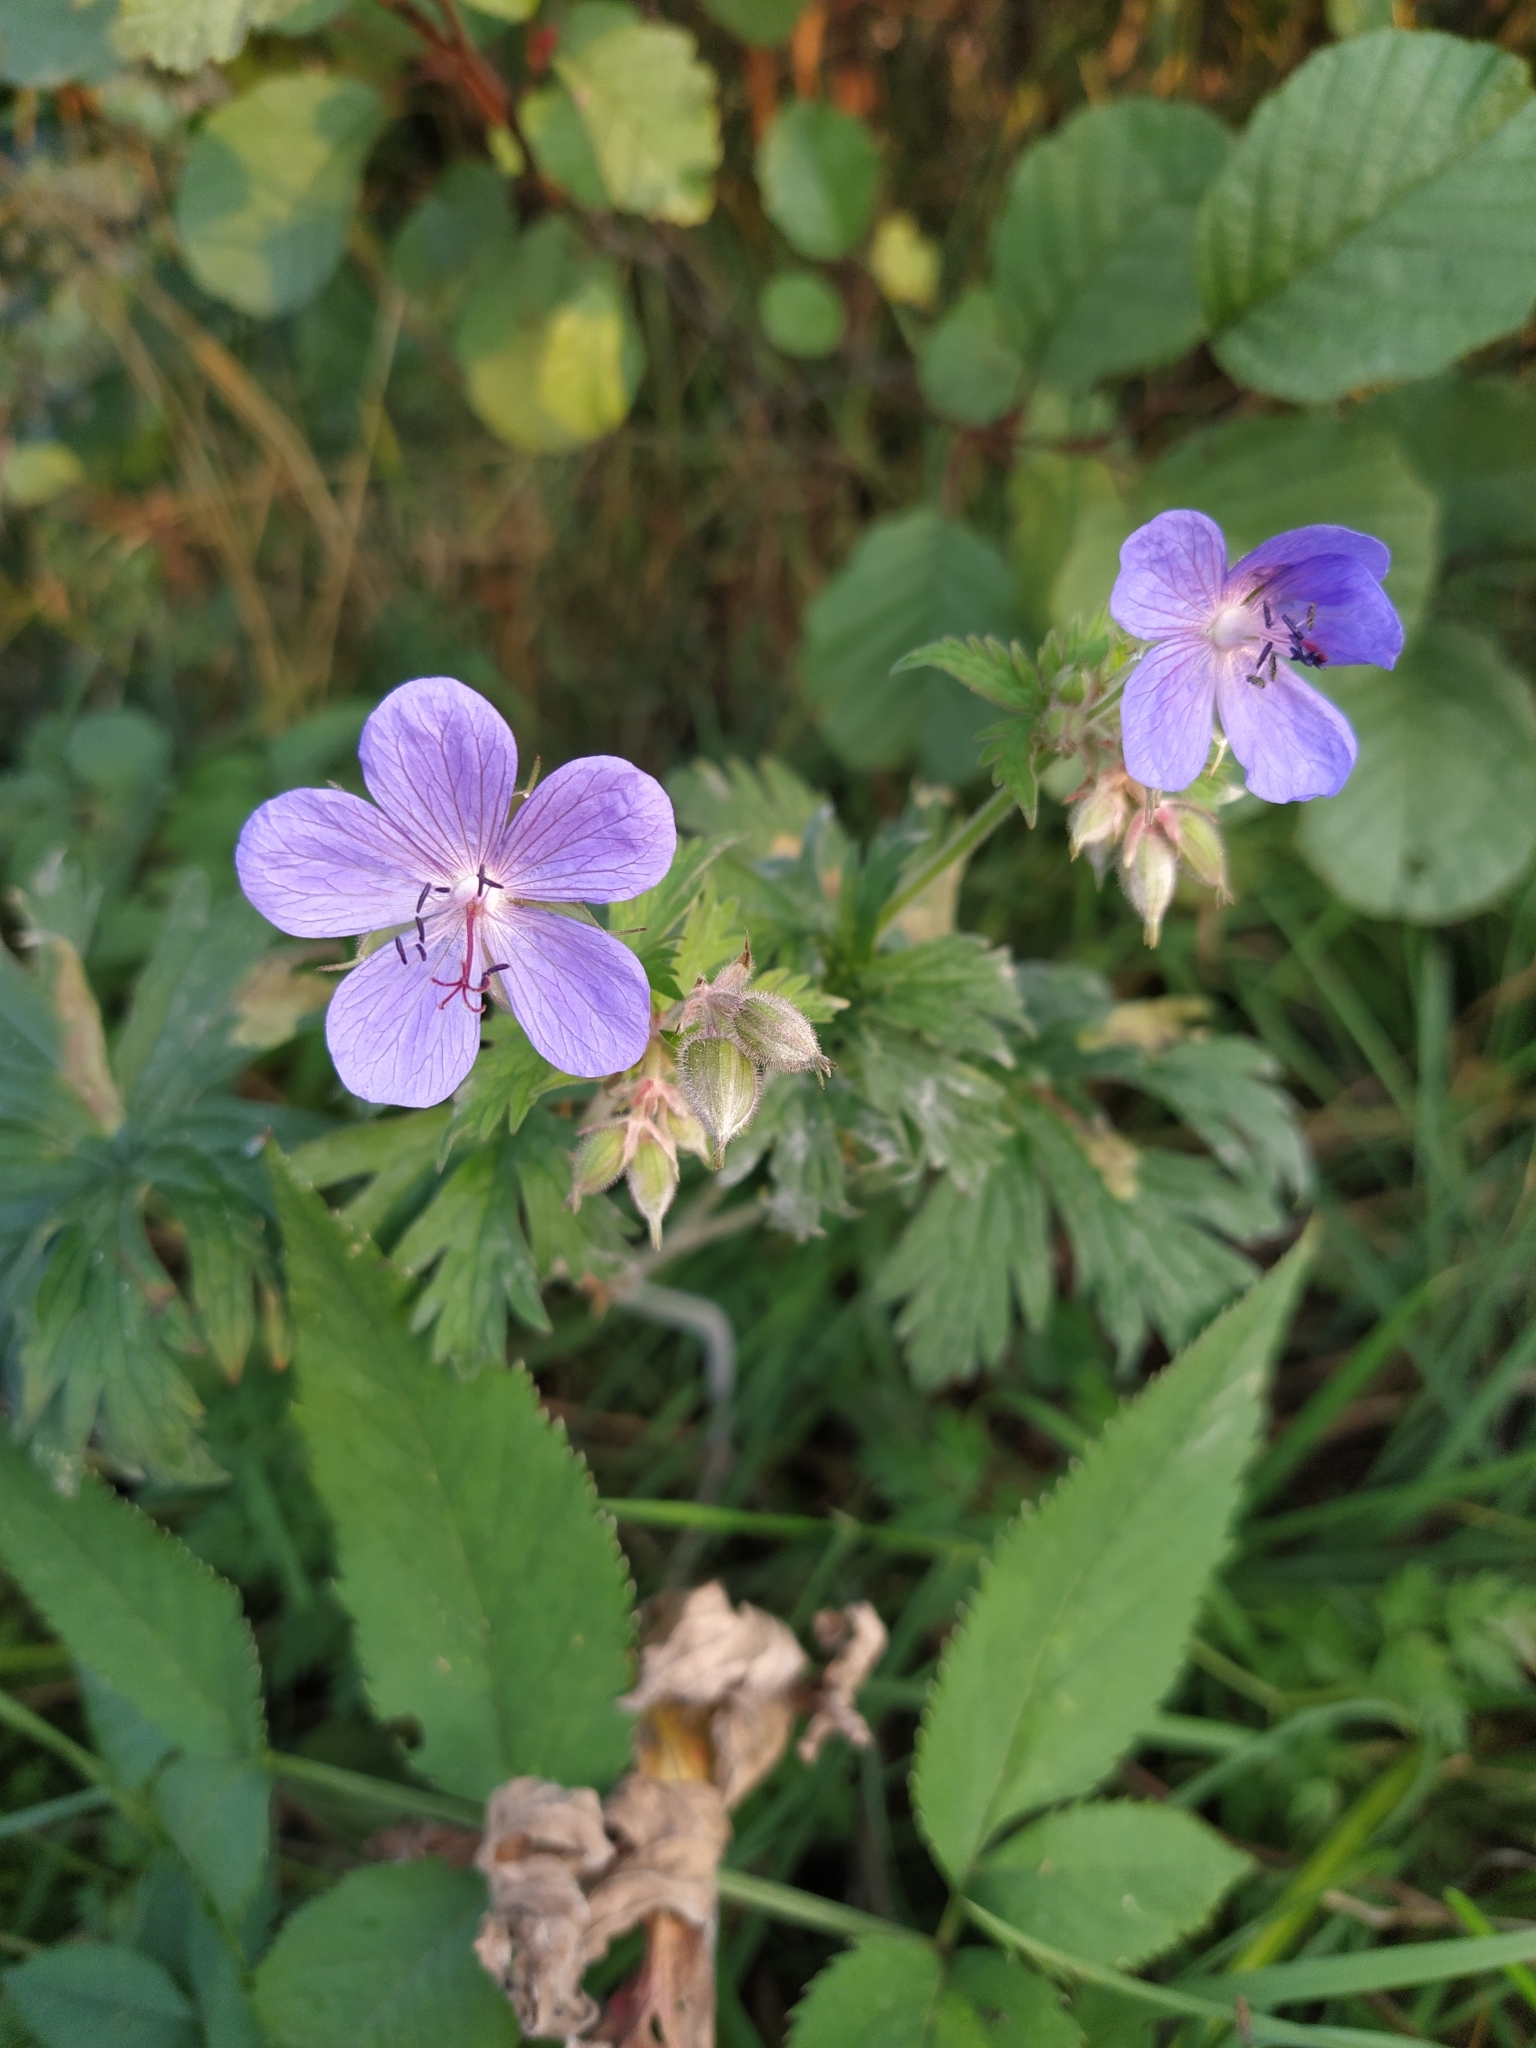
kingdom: Plantae
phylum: Tracheophyta
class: Magnoliopsida
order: Geraniales
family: Geraniaceae
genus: Geranium
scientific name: Geranium pratense
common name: Meadow crane's-bill
